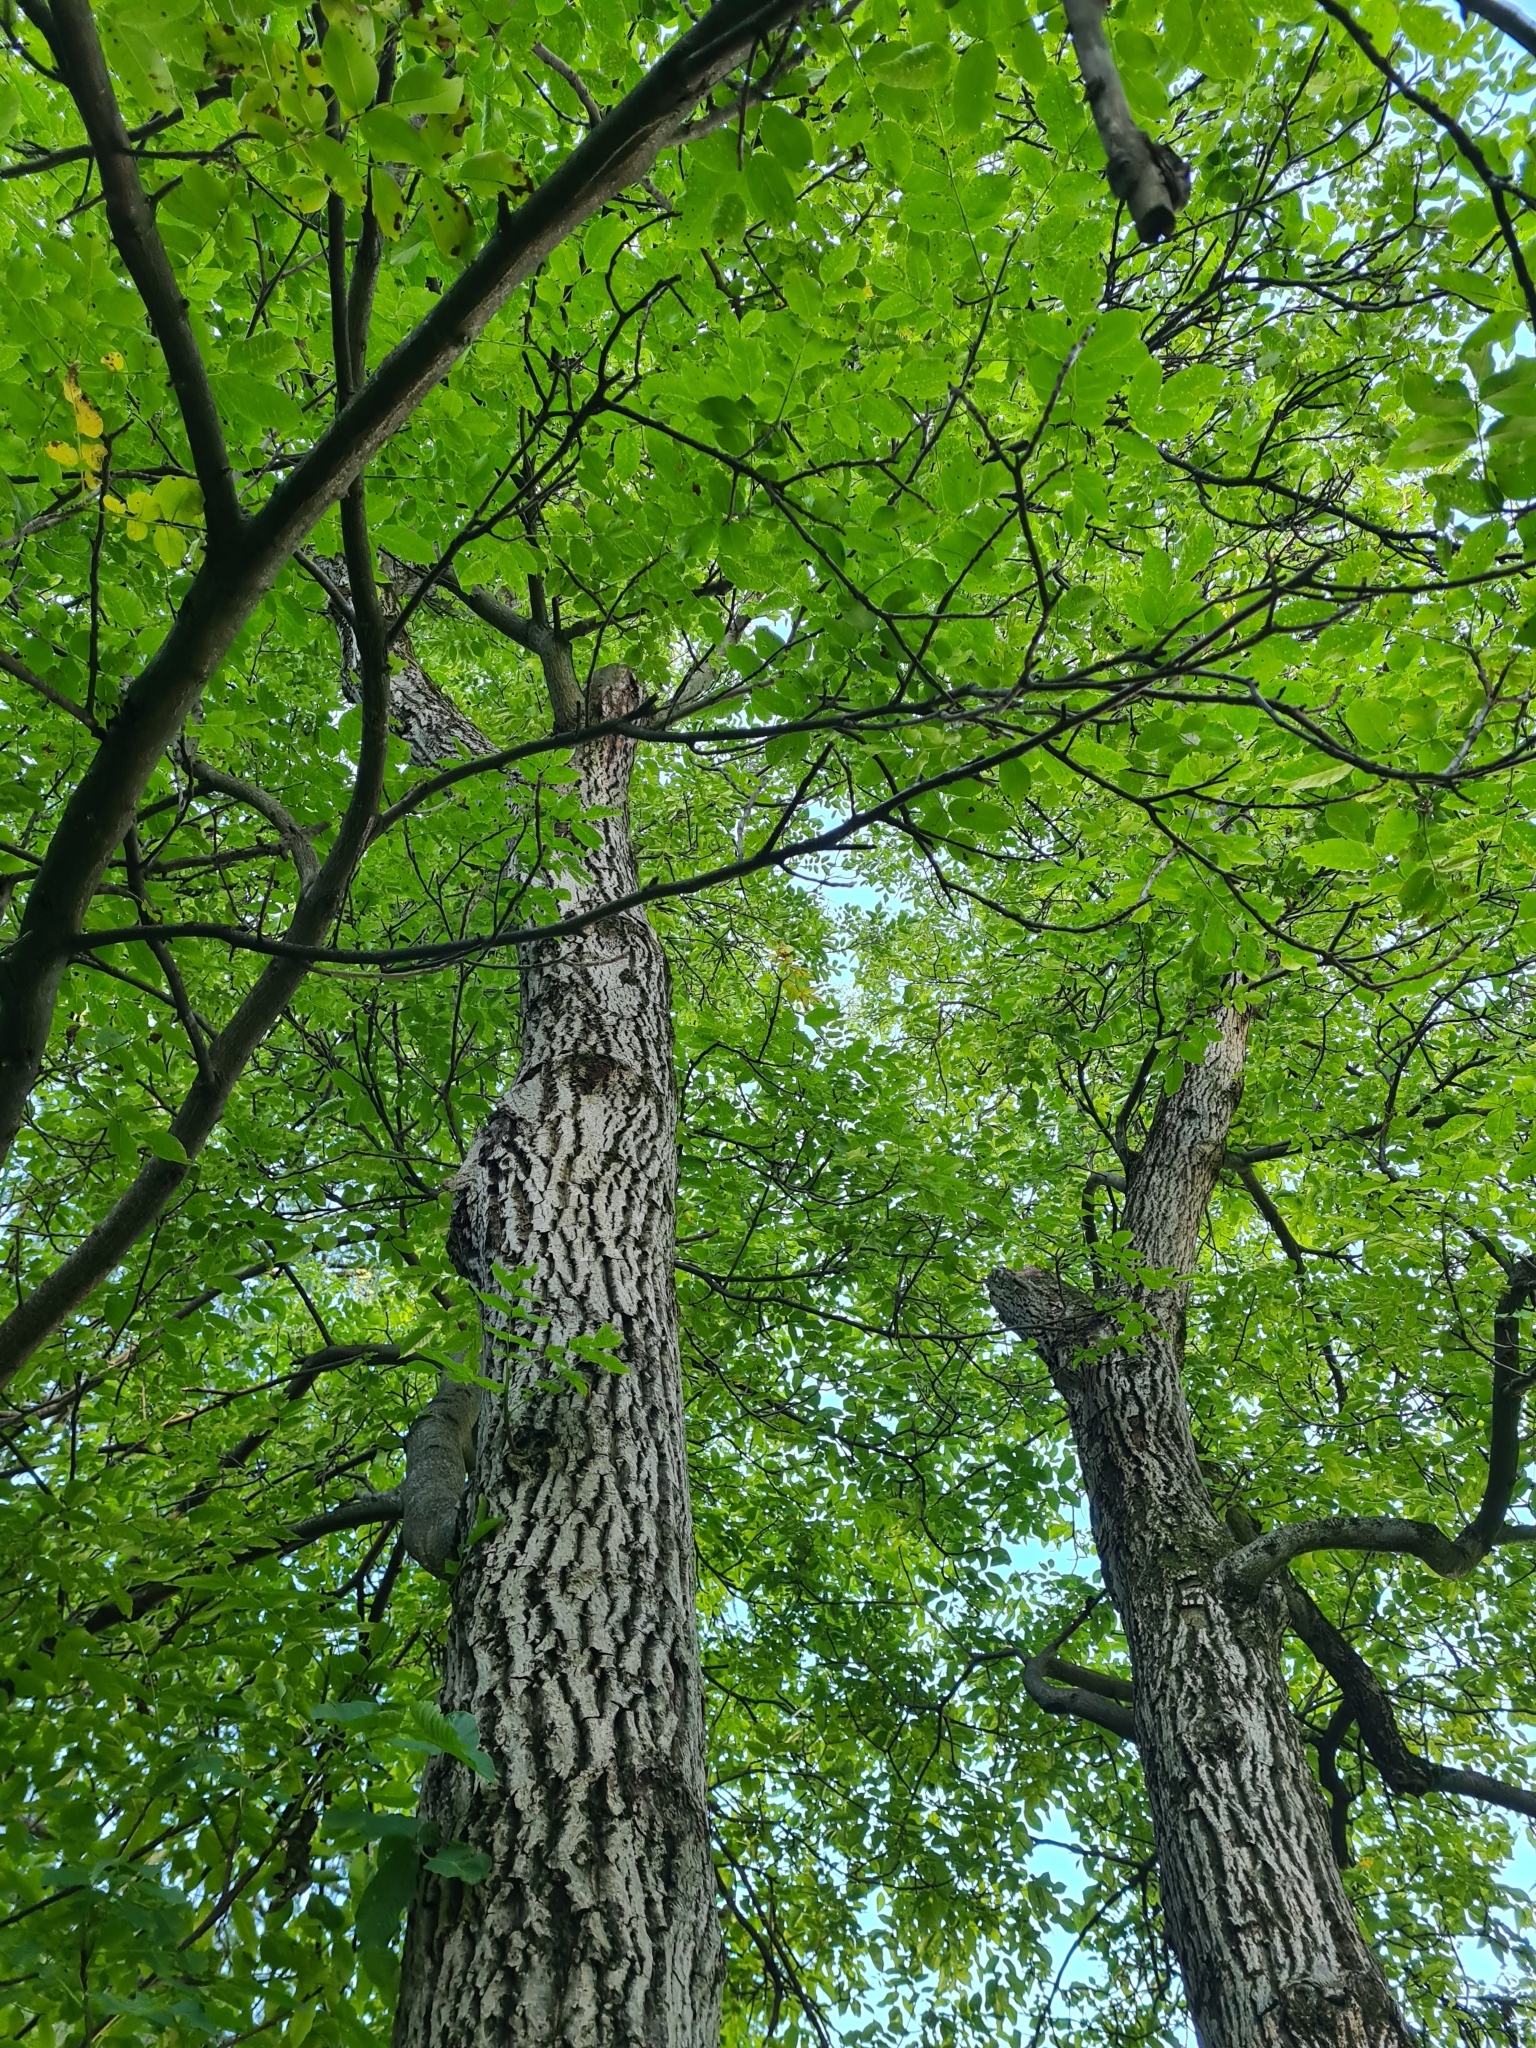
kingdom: Plantae
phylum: Tracheophyta
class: Magnoliopsida
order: Fagales
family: Juglandaceae
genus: Juglans
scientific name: Juglans regia
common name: Walnut
